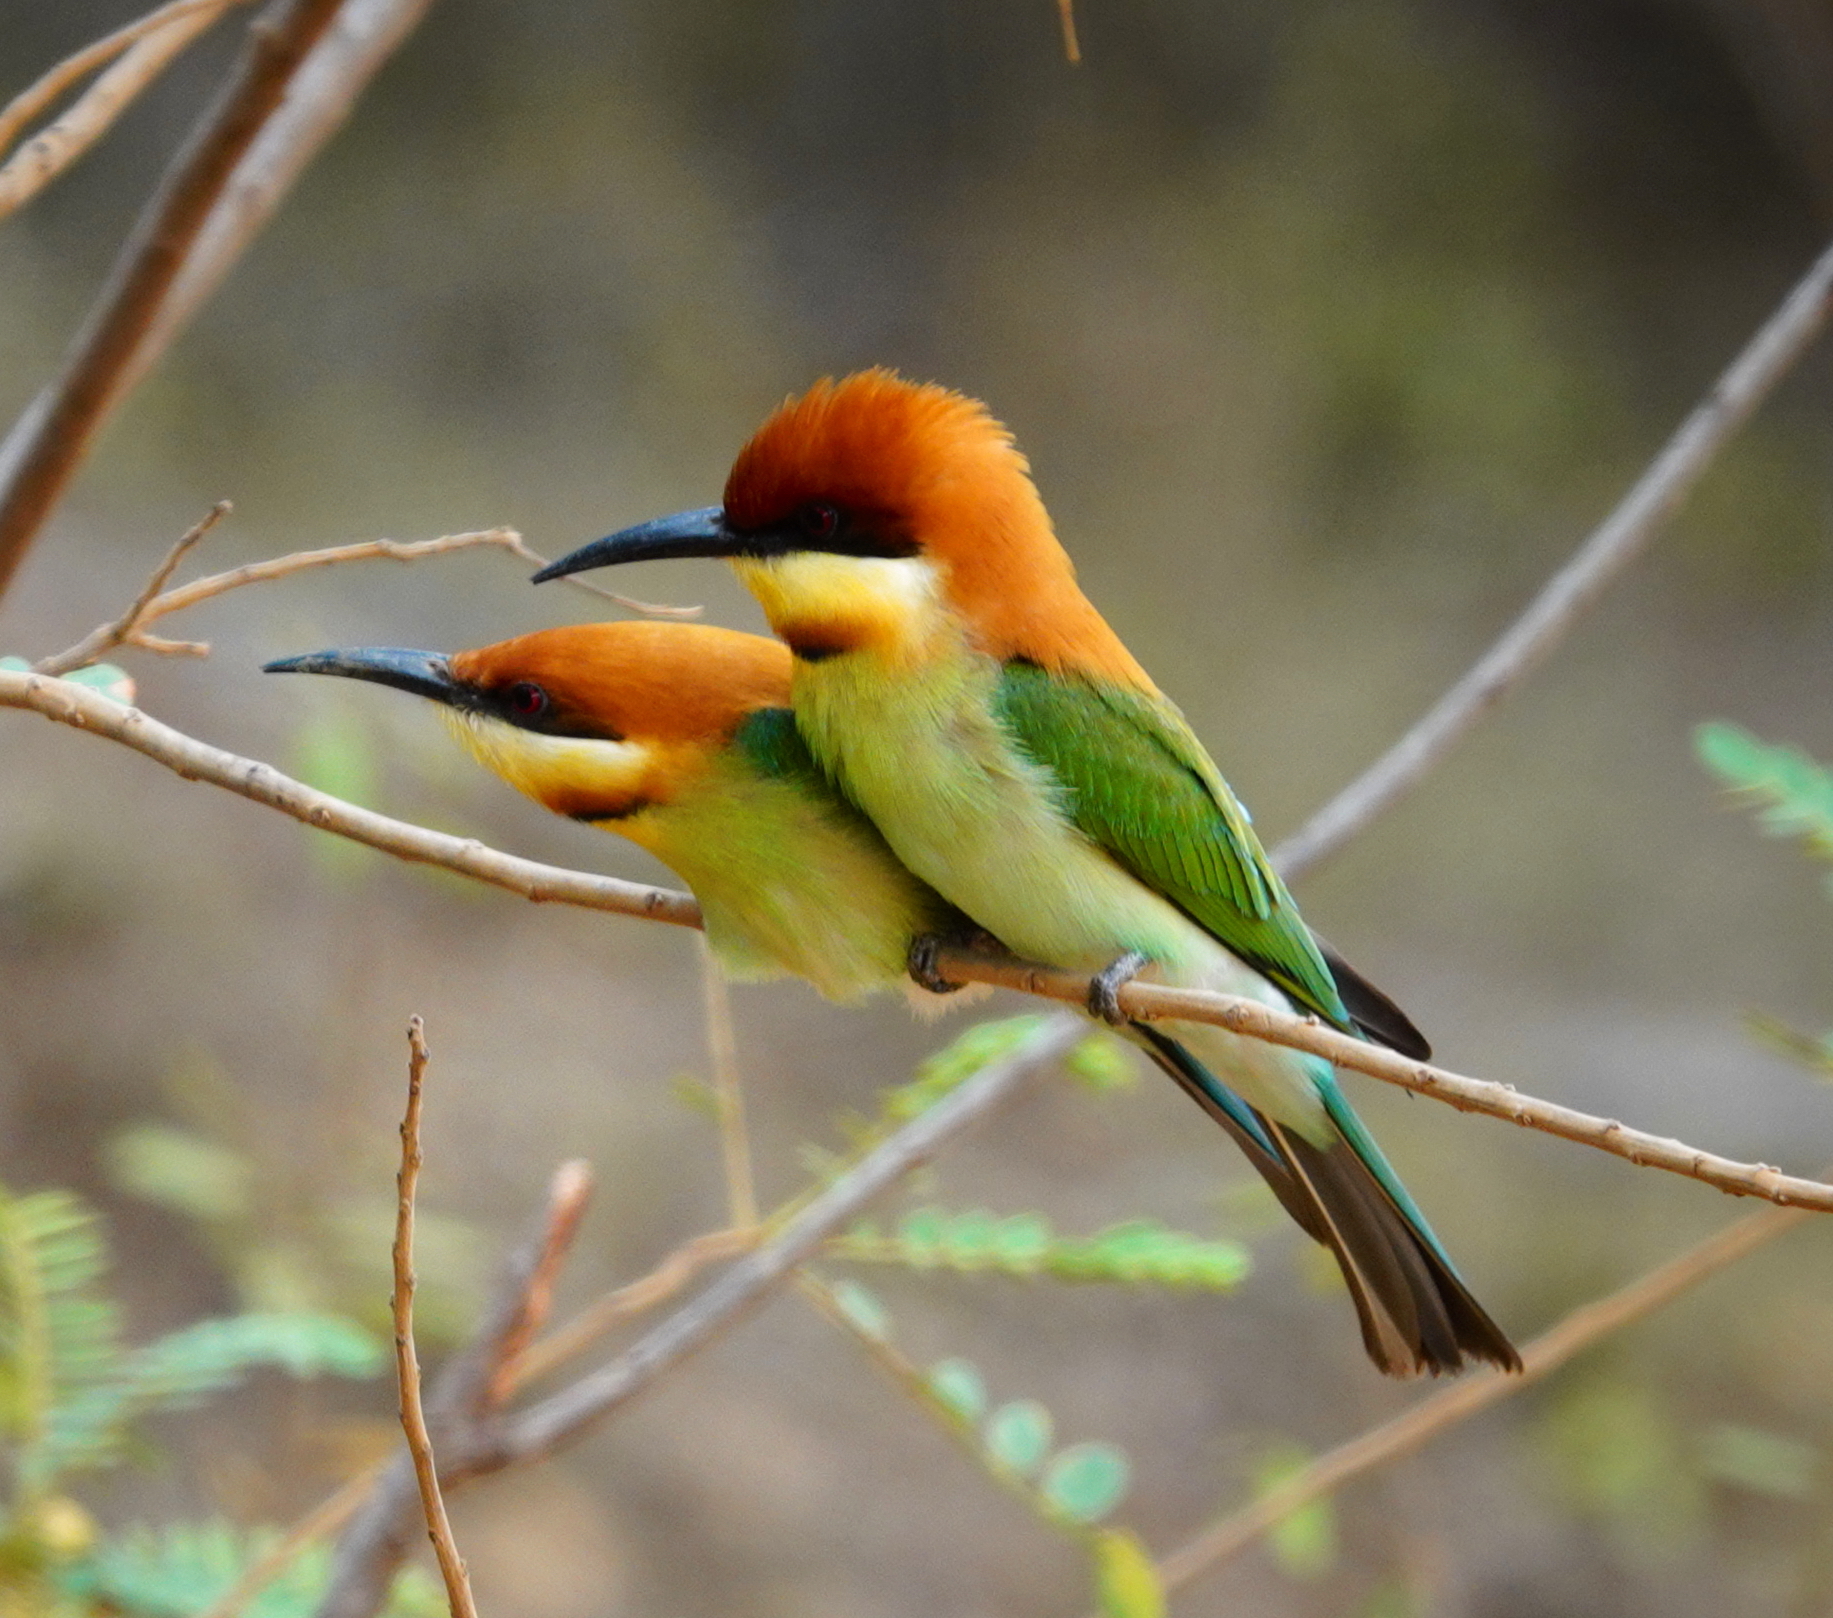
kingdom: Animalia
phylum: Chordata
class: Aves
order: Coraciiformes
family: Meropidae
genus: Merops
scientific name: Merops leschenaulti
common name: Chestnut-headed bee-eater
